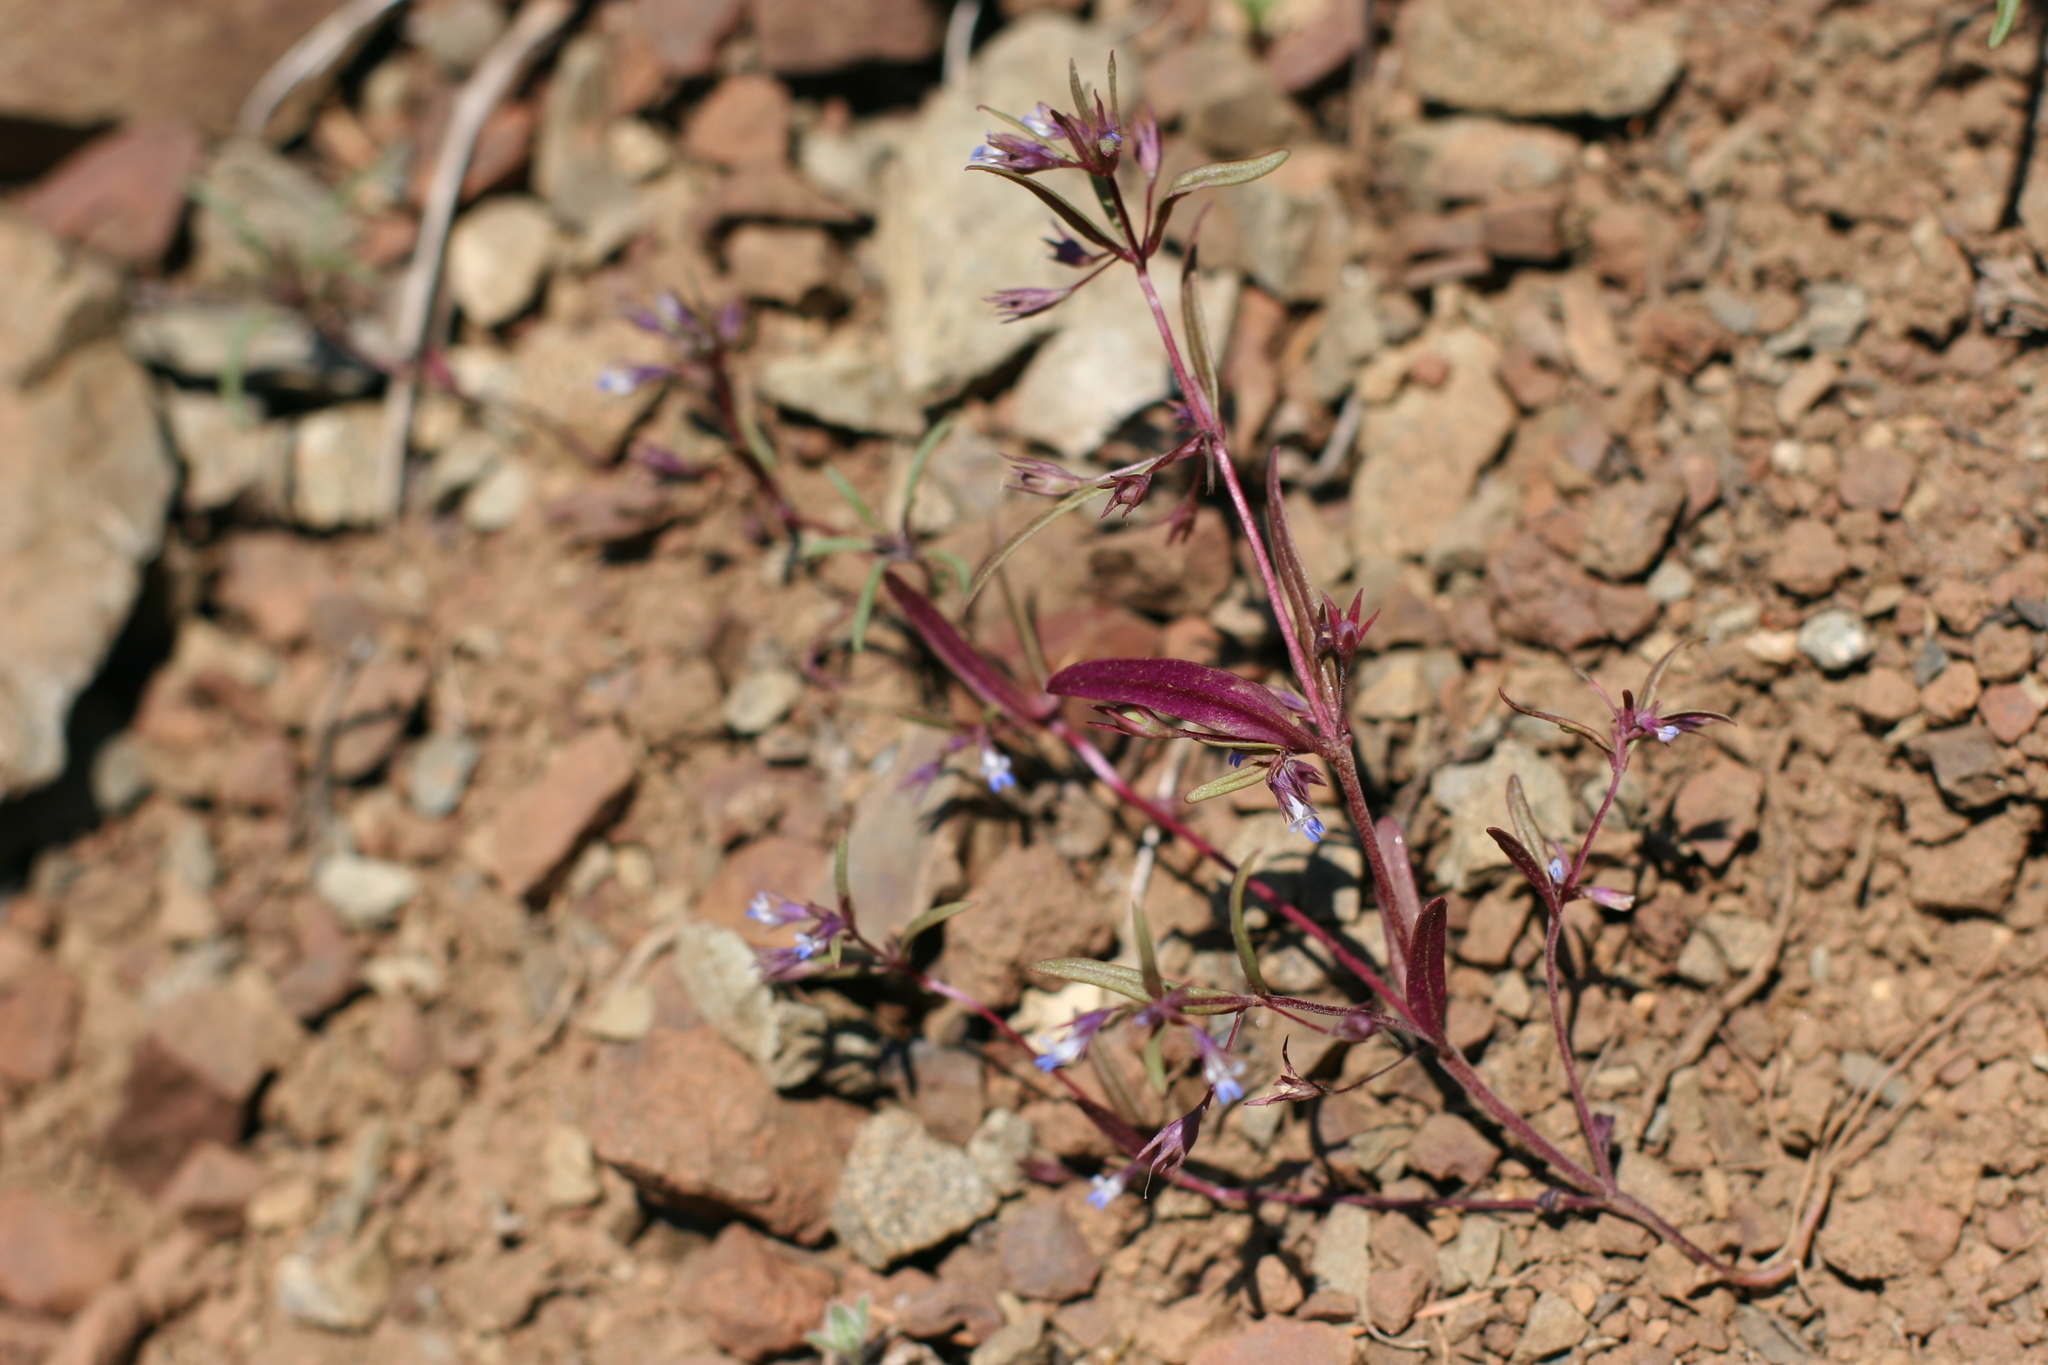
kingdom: Plantae
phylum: Tracheophyta
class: Magnoliopsida
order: Lamiales
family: Plantaginaceae
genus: Collinsia
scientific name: Collinsia parviflora
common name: Blue-lips
